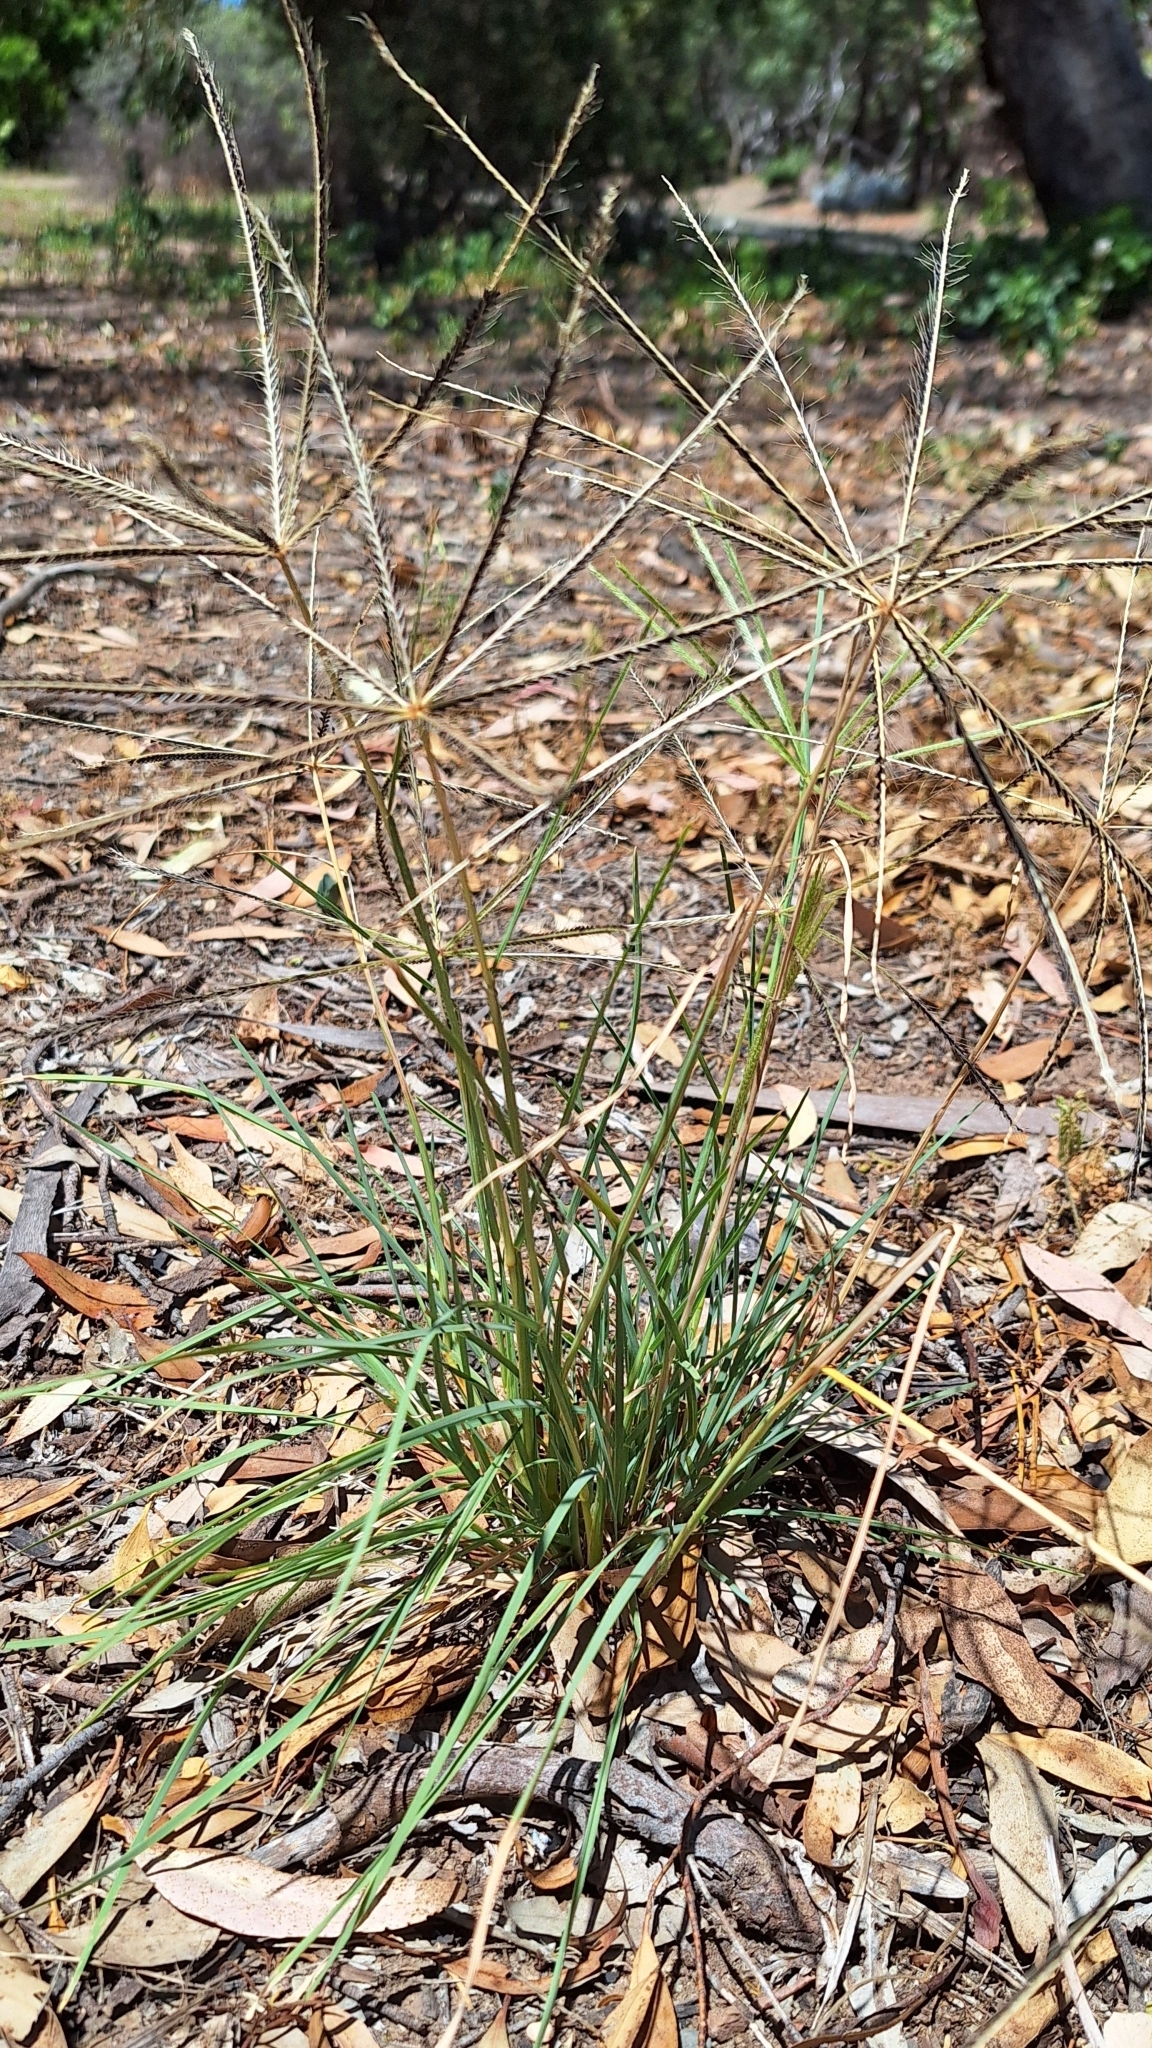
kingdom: Plantae
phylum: Tracheophyta
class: Liliopsida
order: Poales
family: Poaceae
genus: Chloris
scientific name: Chloris truncata
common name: Windmill-grass
